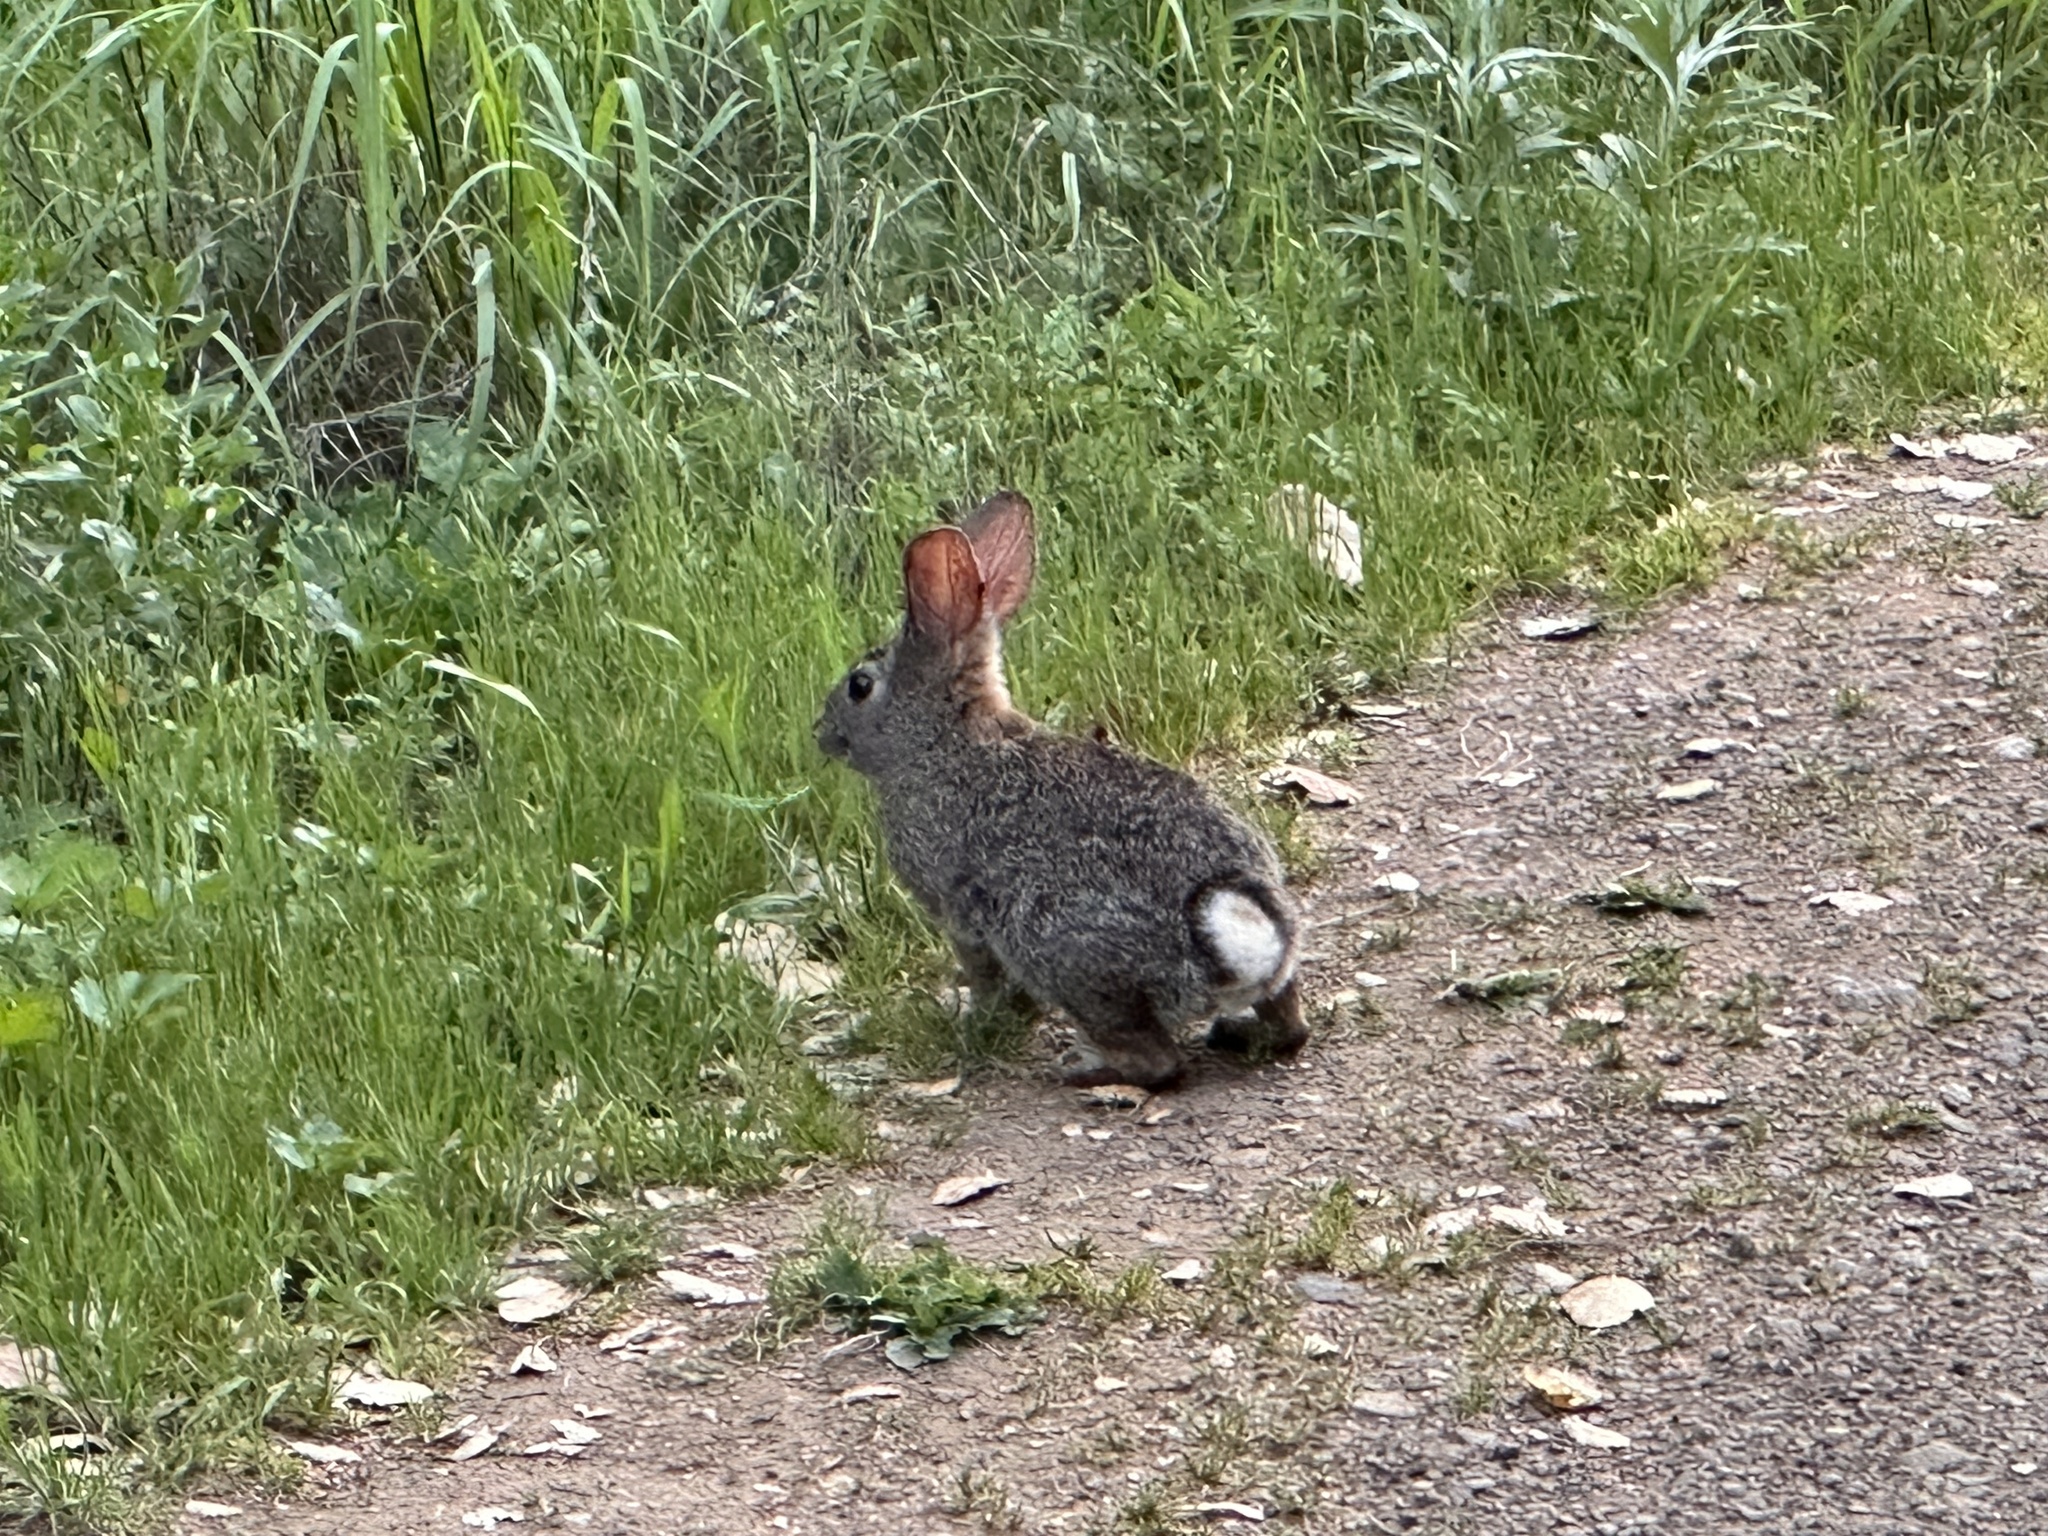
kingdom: Animalia
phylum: Chordata
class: Mammalia
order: Lagomorpha
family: Leporidae
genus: Sylvilagus
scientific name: Sylvilagus bachmani
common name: Brush rabbit
